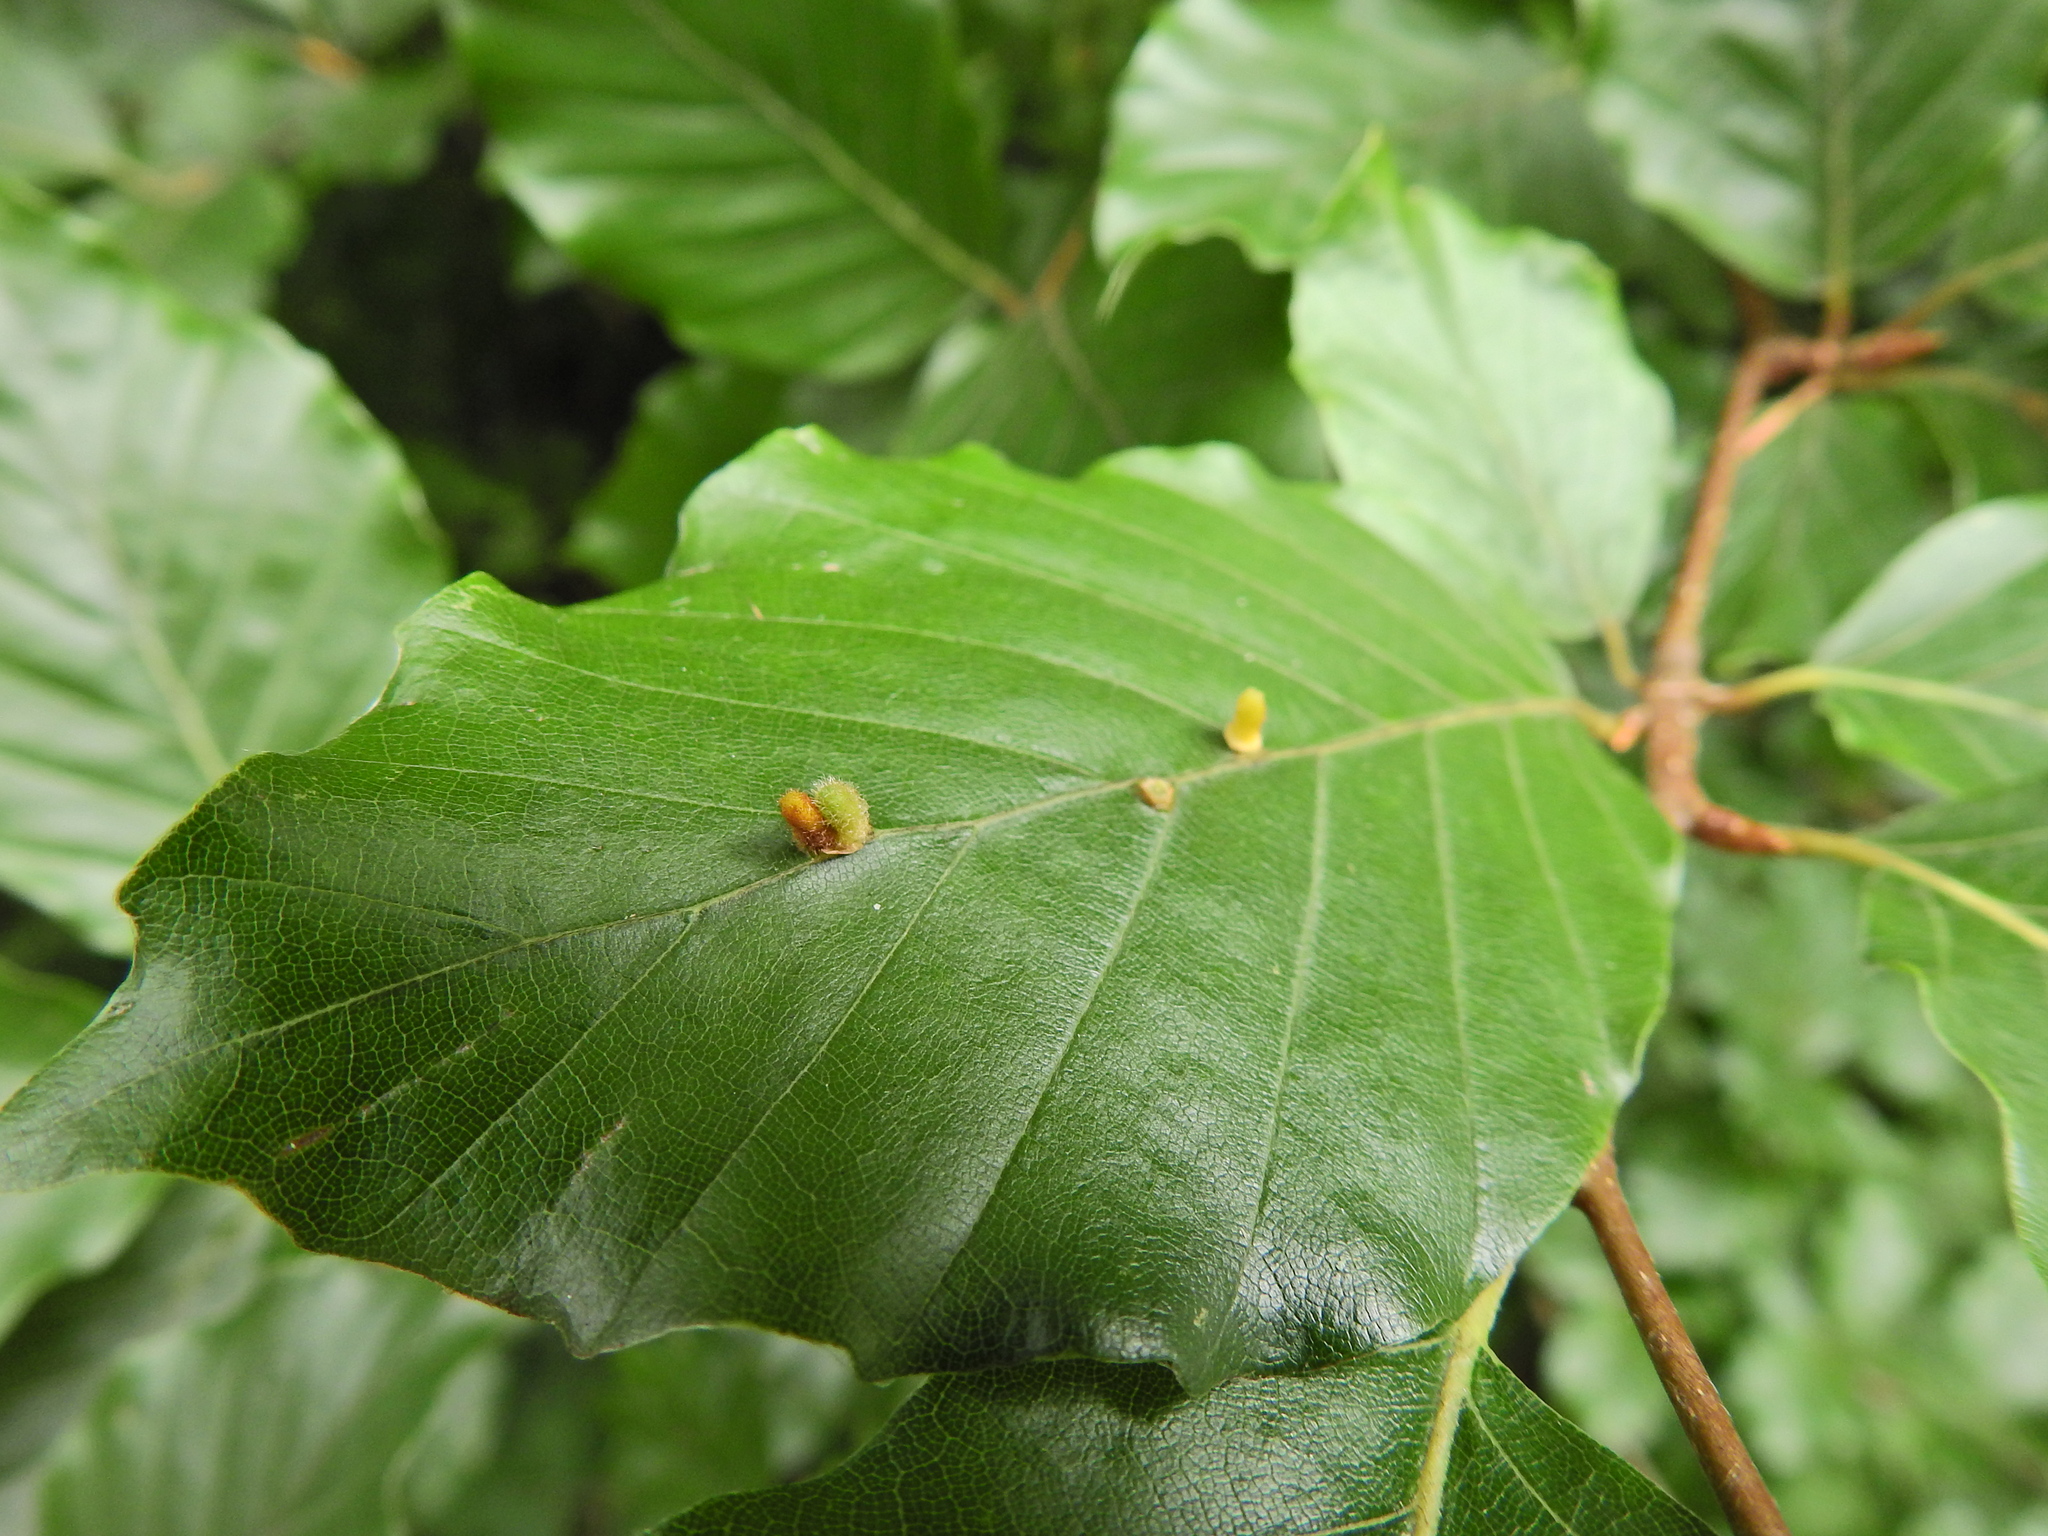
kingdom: Animalia
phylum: Arthropoda
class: Insecta
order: Diptera
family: Cecidomyiidae
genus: Hartigiola
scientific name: Hartigiola annulipes
